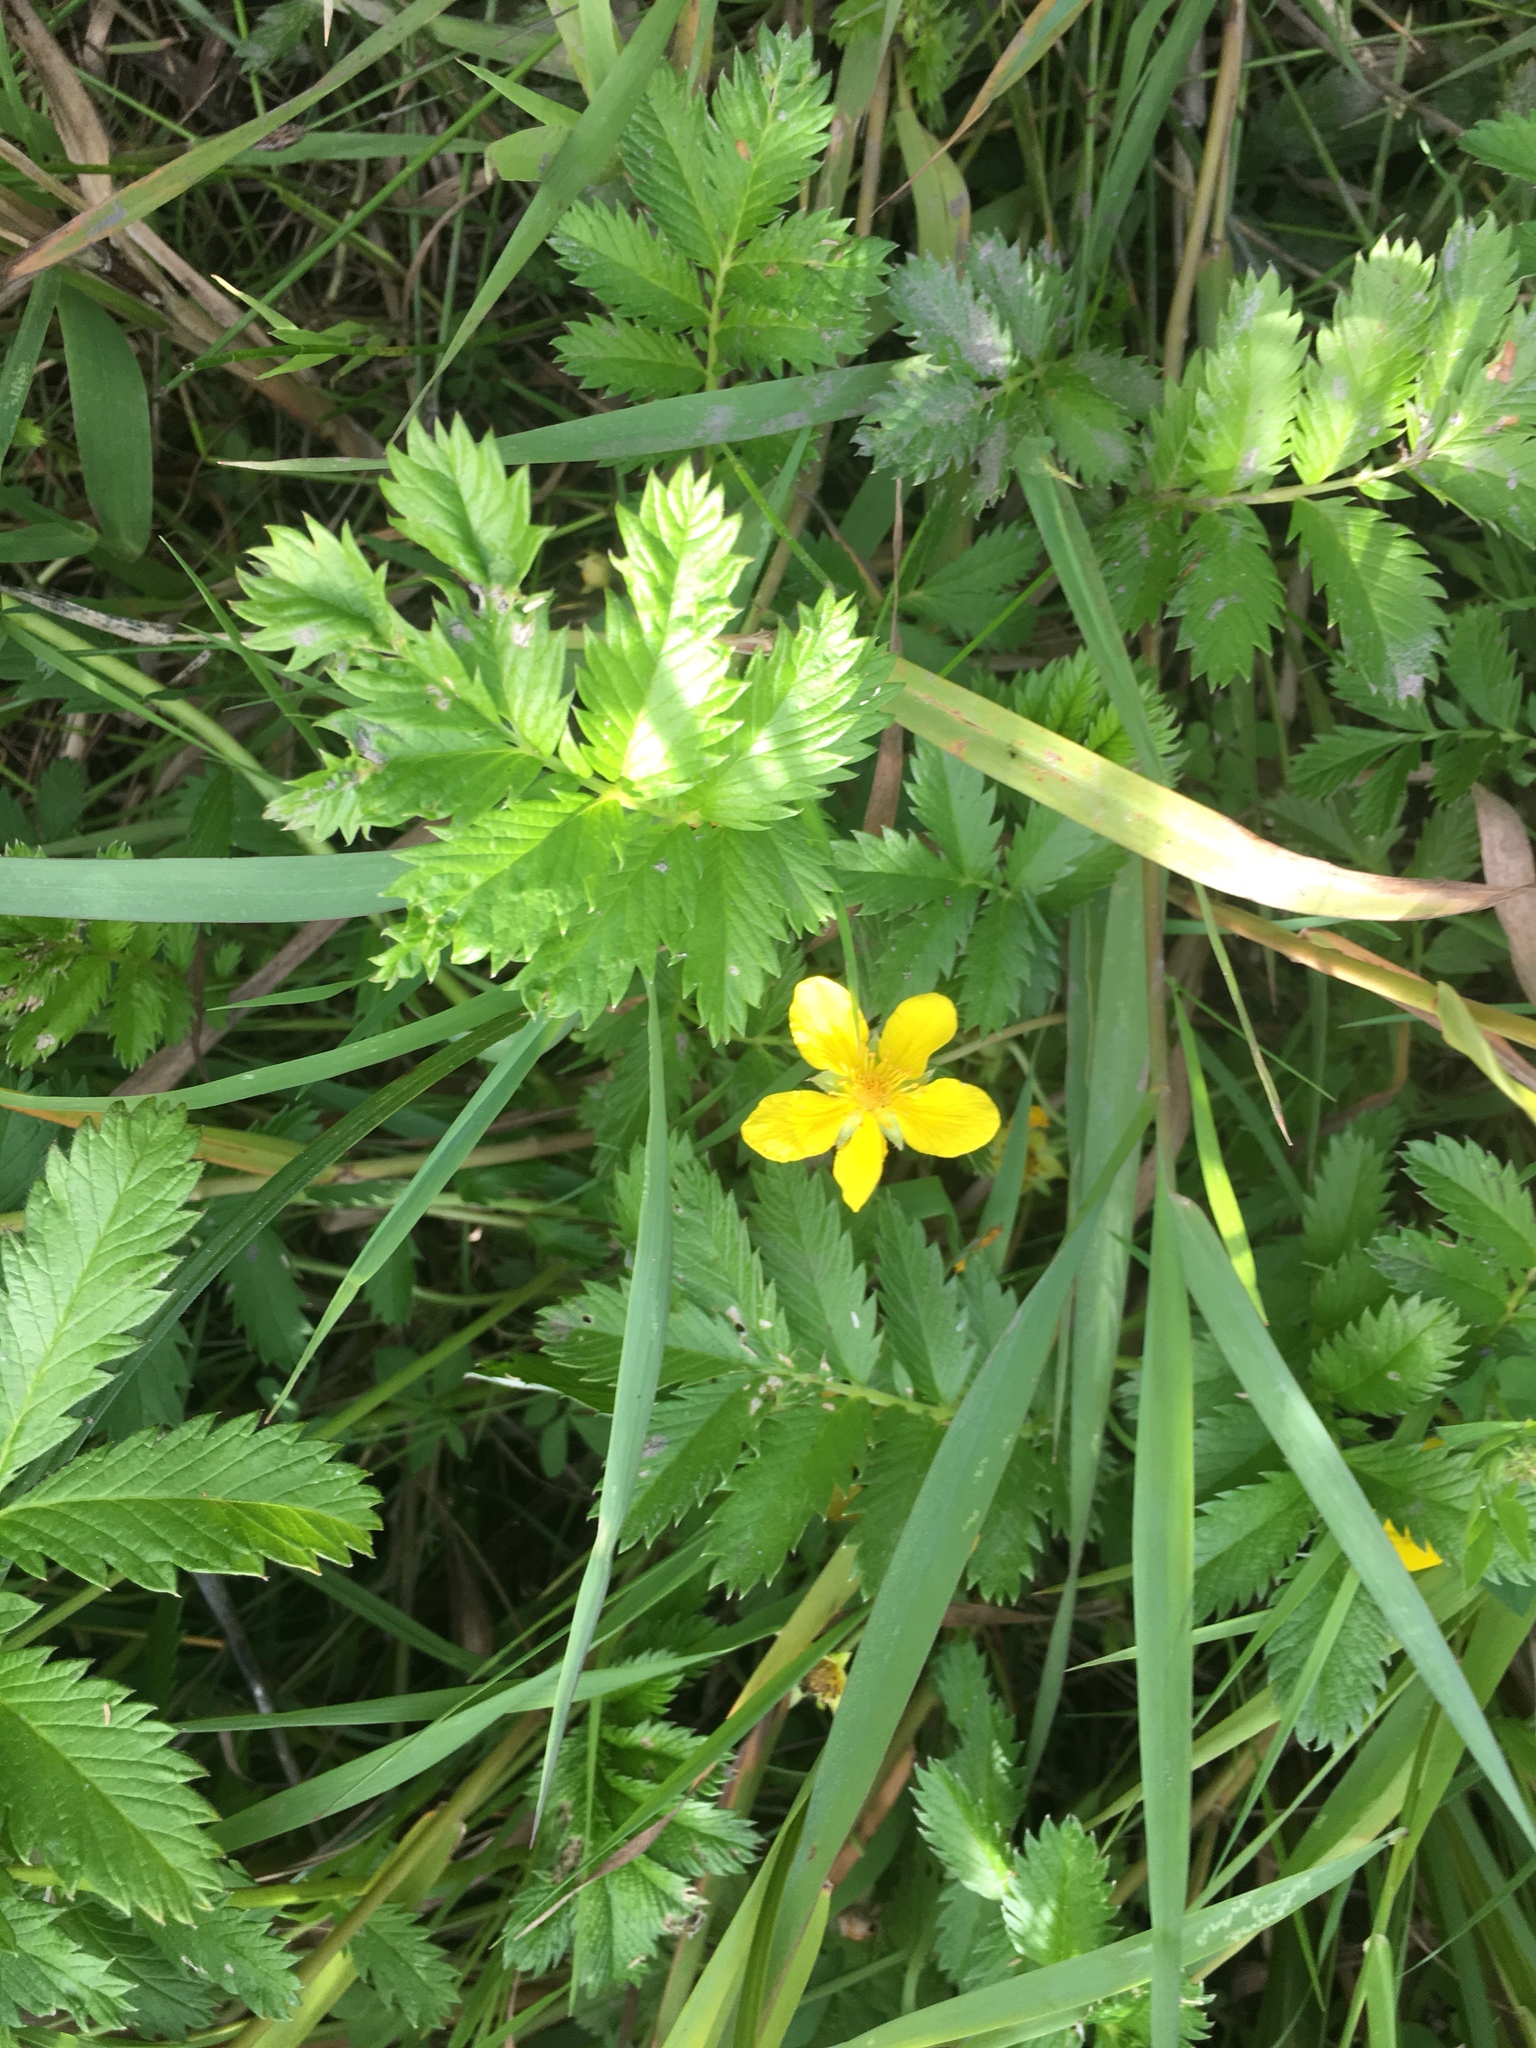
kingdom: Plantae
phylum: Tracheophyta
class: Magnoliopsida
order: Rosales
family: Rosaceae
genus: Argentina
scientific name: Argentina anserina
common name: Common silverweed
